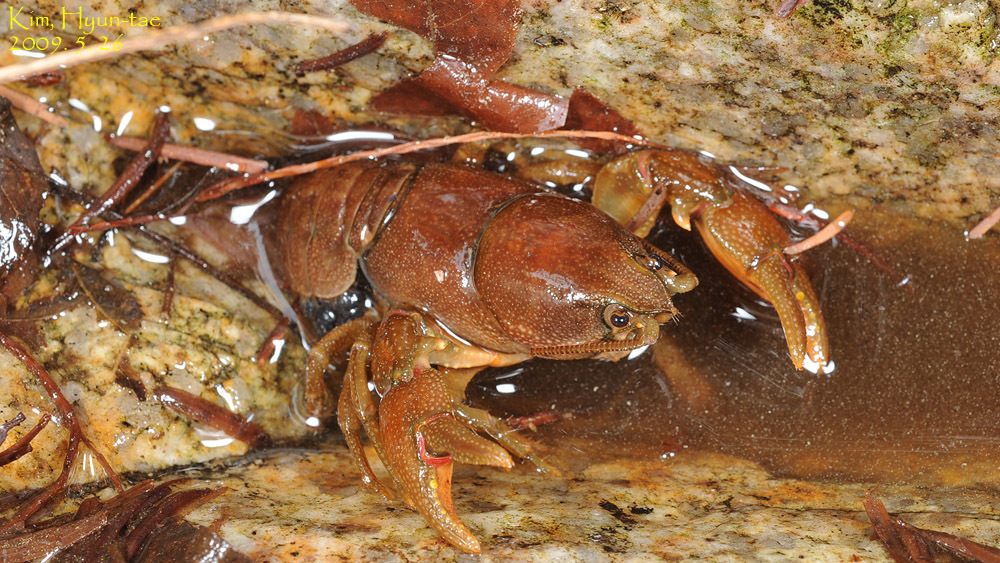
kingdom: Animalia
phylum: Arthropoda
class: Malacostraca
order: Decapoda
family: Cambaroididae
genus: Cambaroides
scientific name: Cambaroides similis
